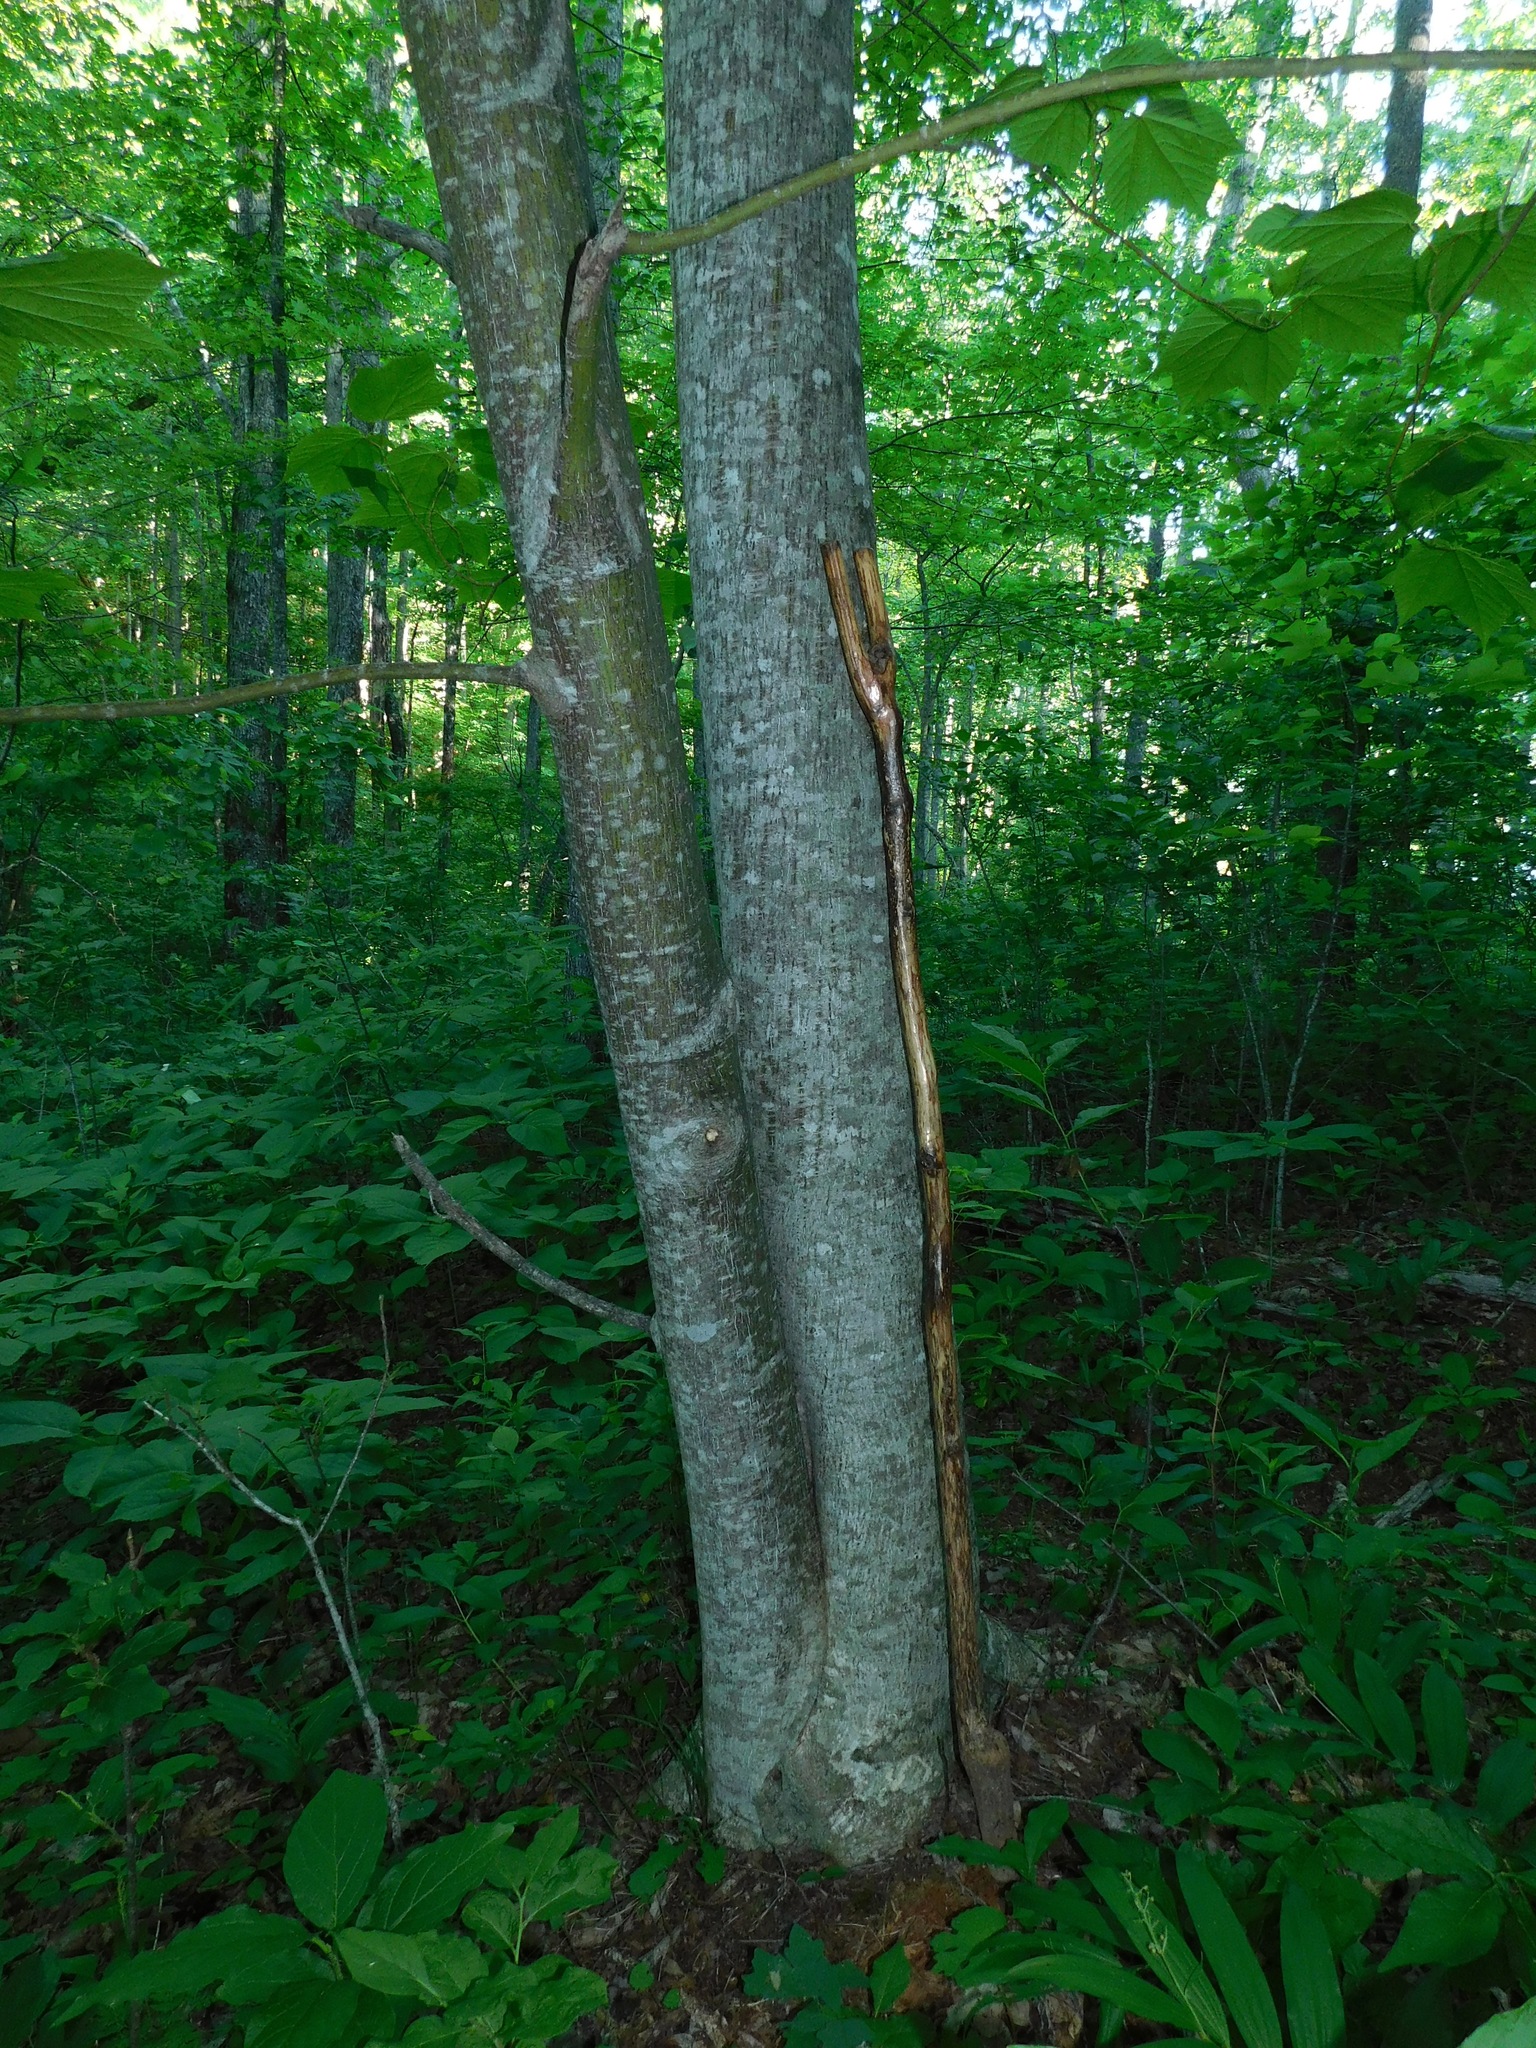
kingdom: Plantae
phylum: Tracheophyta
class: Magnoliopsida
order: Sapindales
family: Sapindaceae
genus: Acer
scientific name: Acer pensylvanicum
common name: Moosewood
